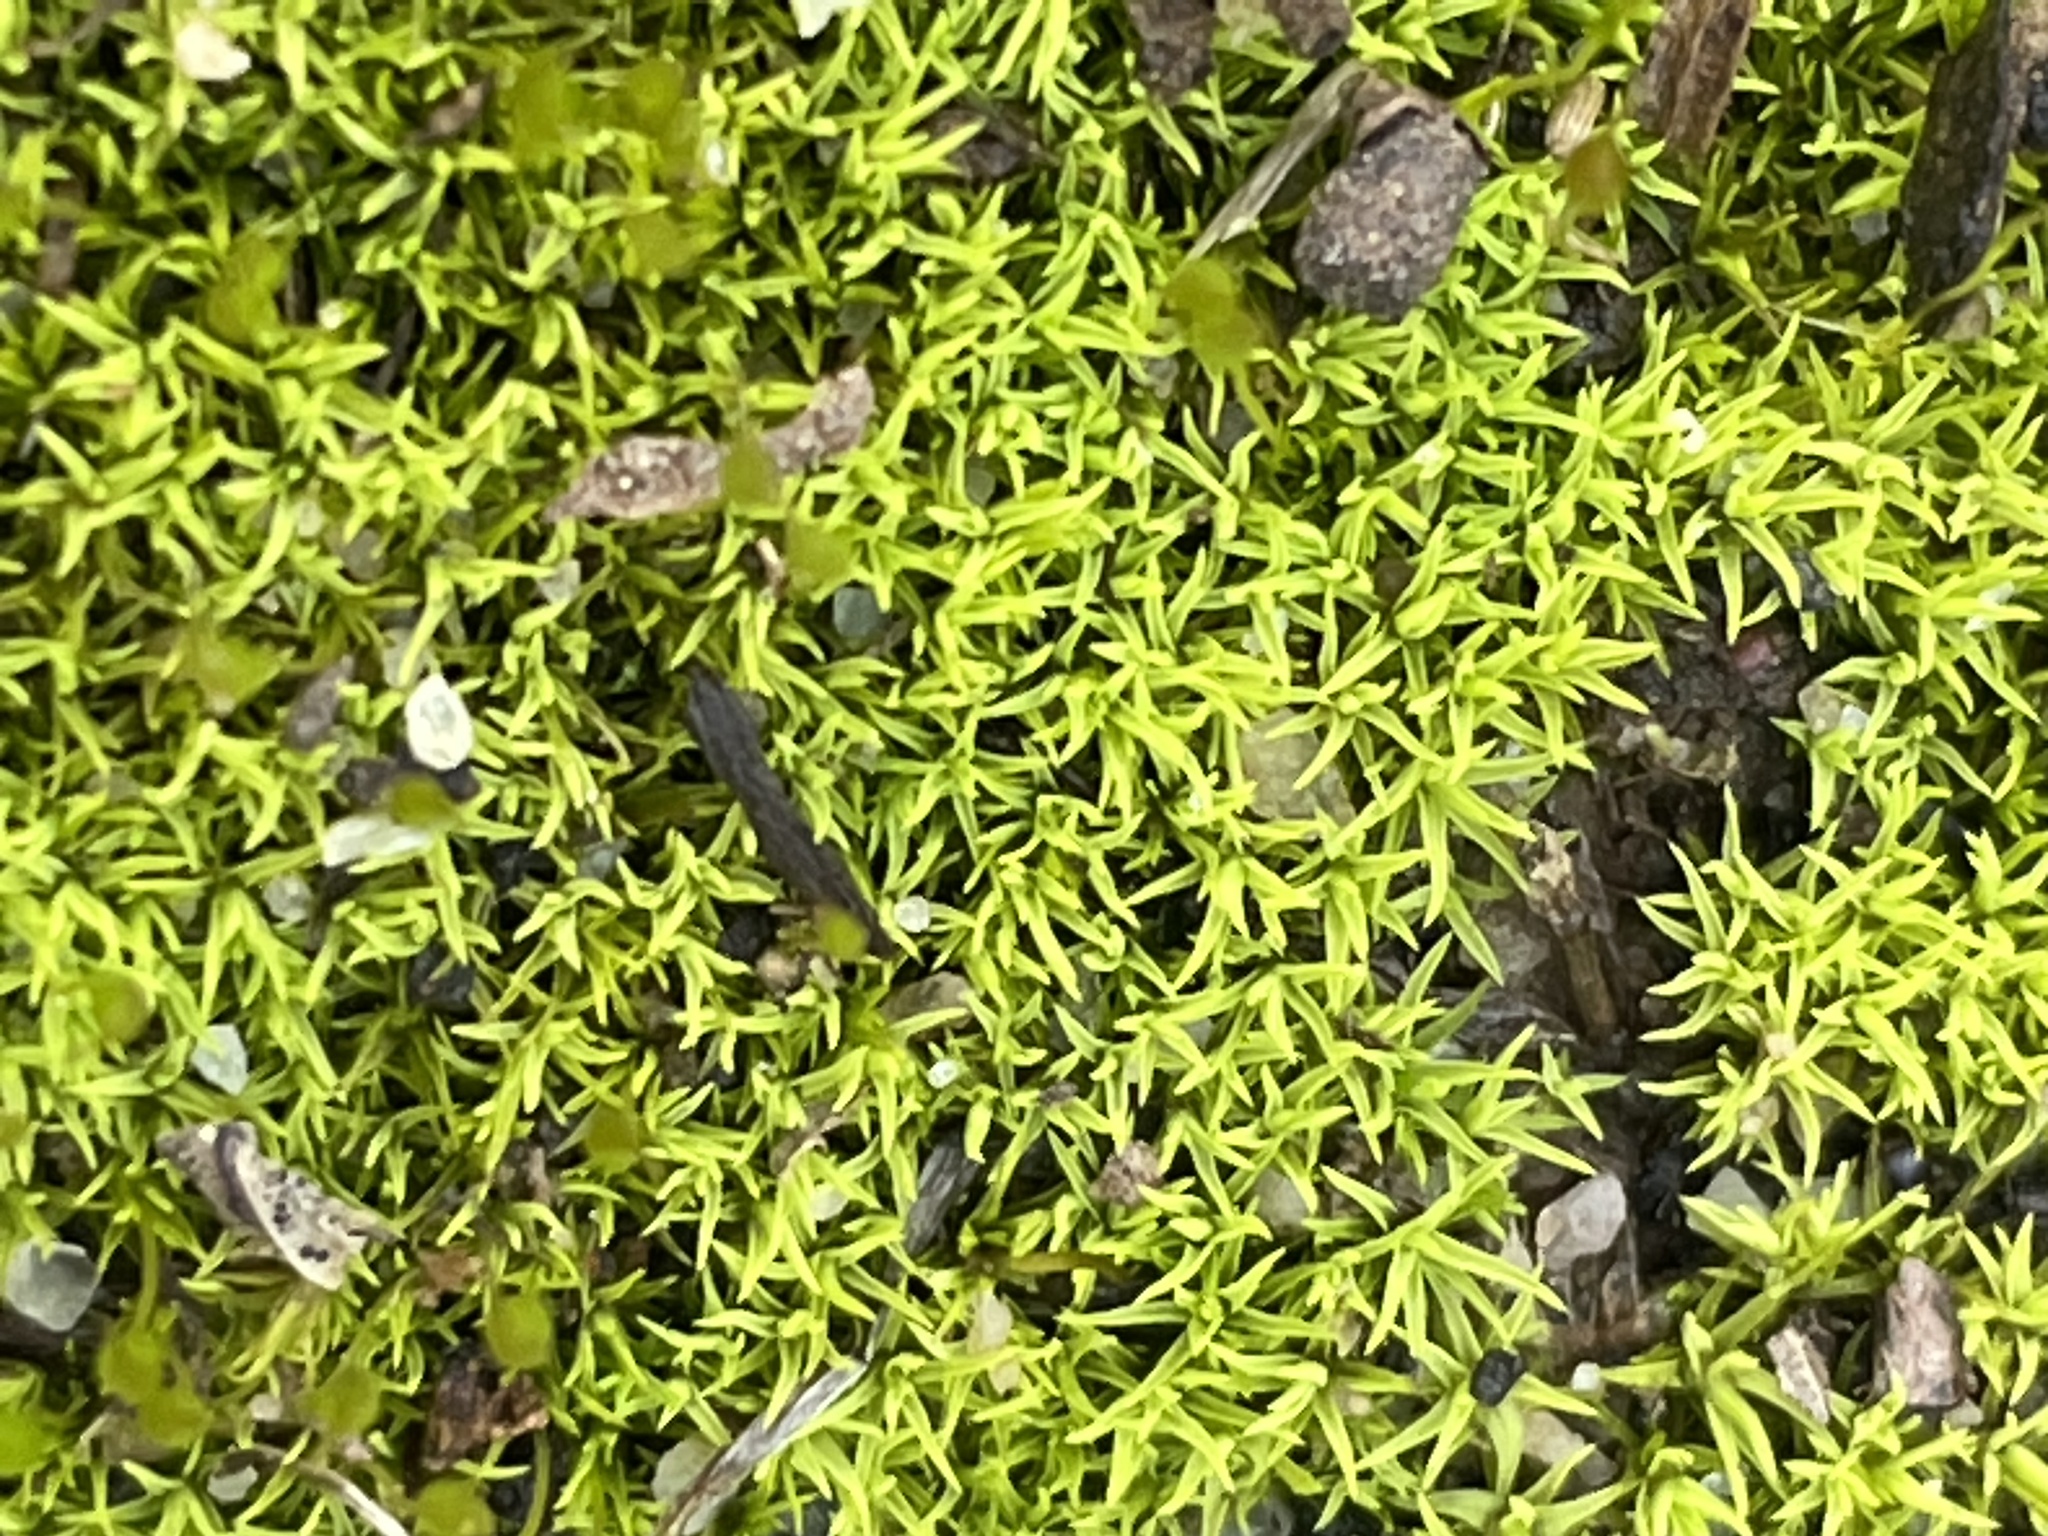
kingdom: Plantae
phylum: Bryophyta
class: Bryopsida
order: Pottiales
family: Pottiaceae
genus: Weissia
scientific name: Weissia controversa
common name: Green-tufted stubble moss
